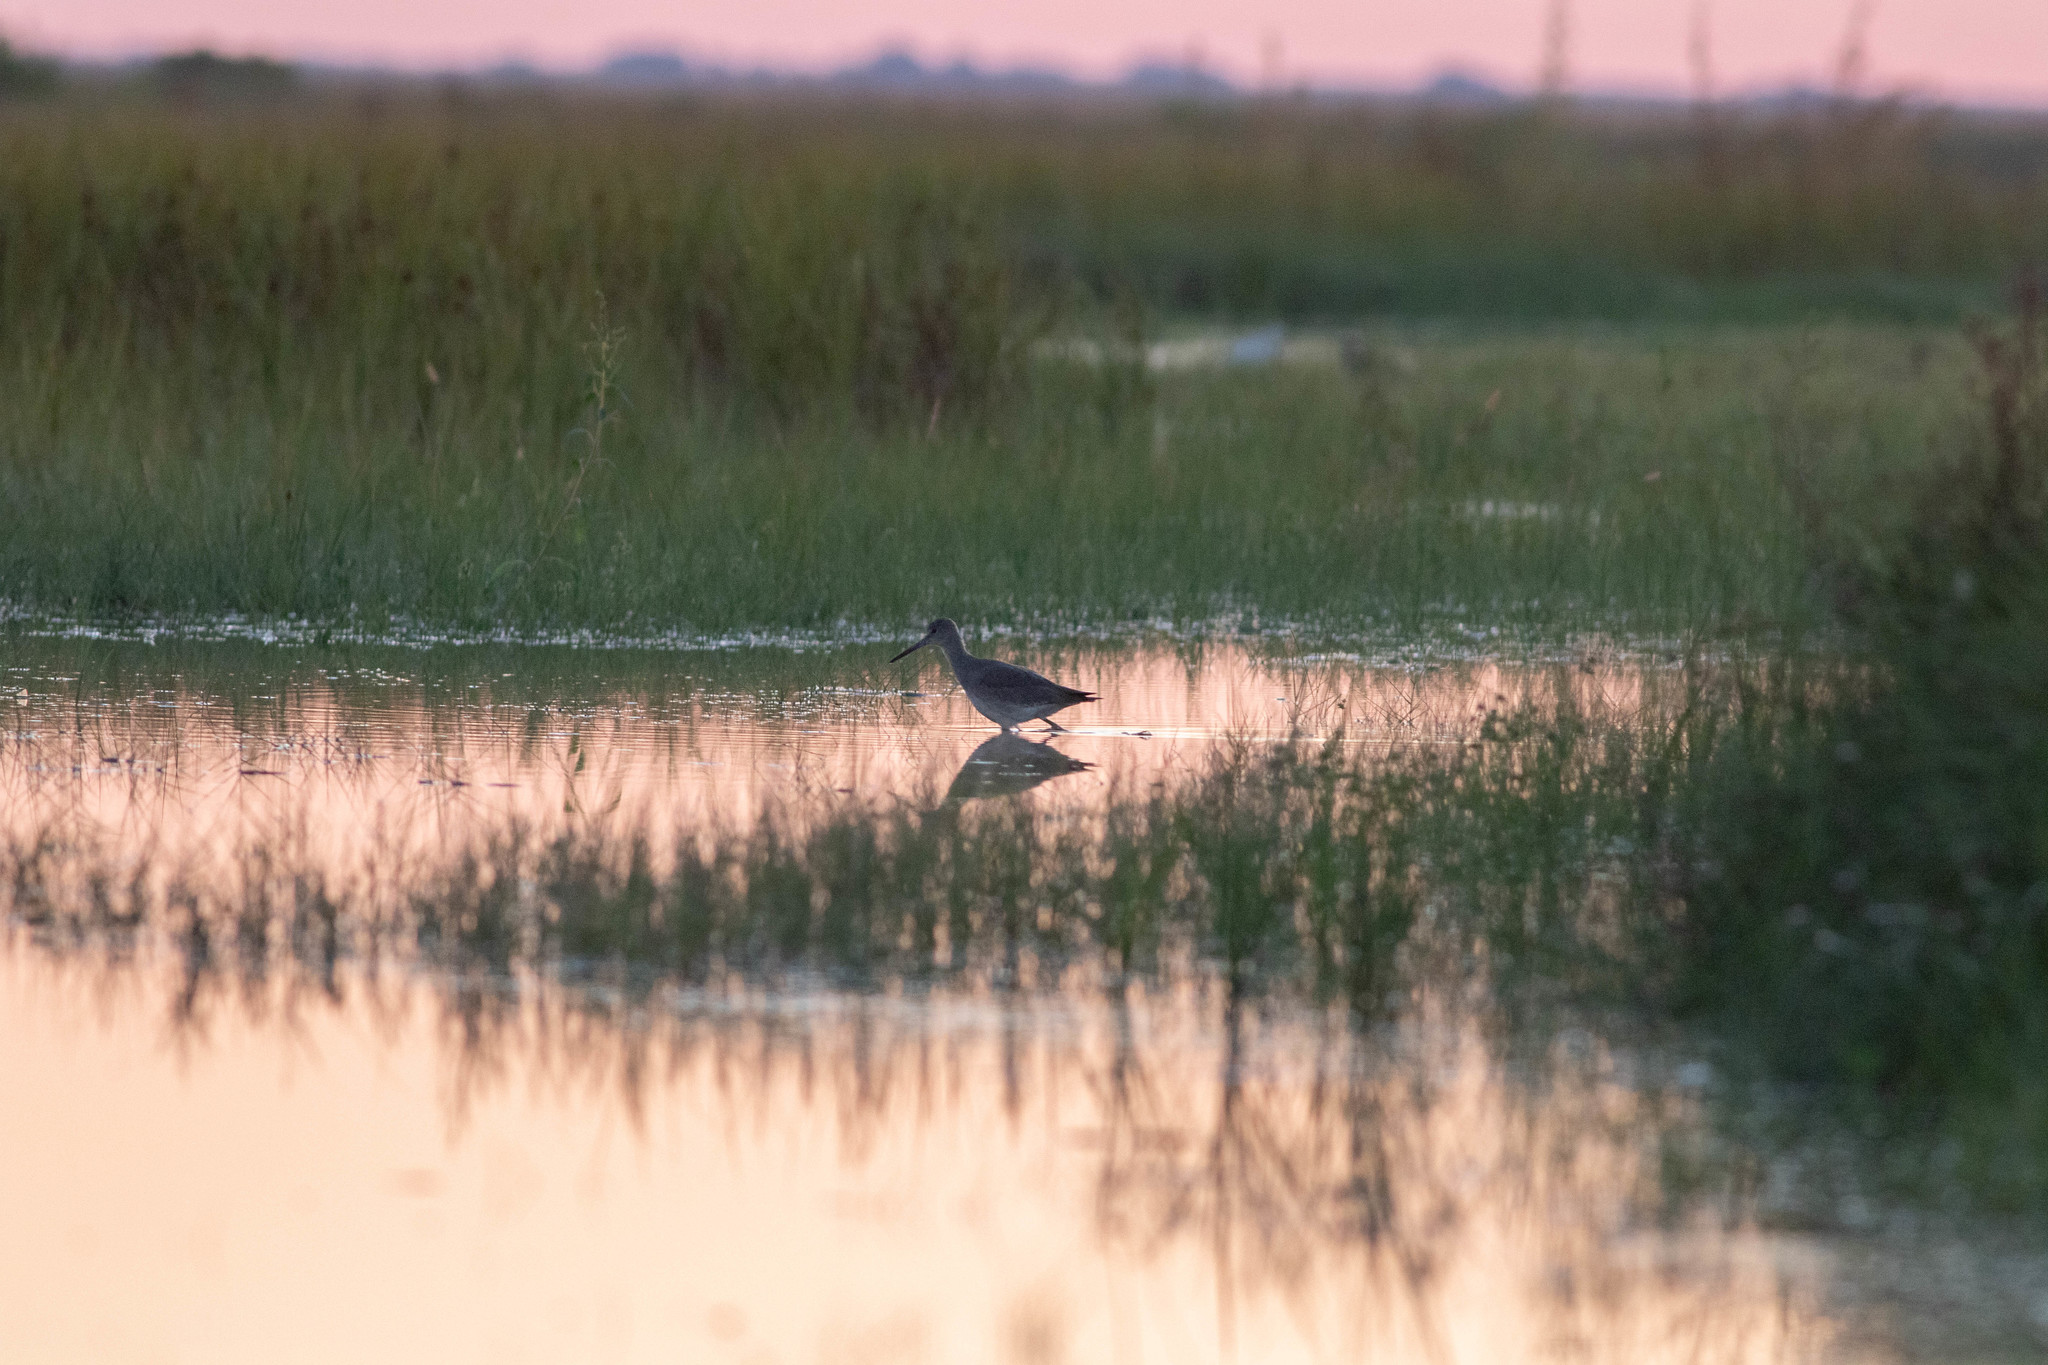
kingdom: Animalia
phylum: Chordata
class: Aves
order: Charadriiformes
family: Scolopacidae
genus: Tringa
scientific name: Tringa semipalmata
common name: Willet
